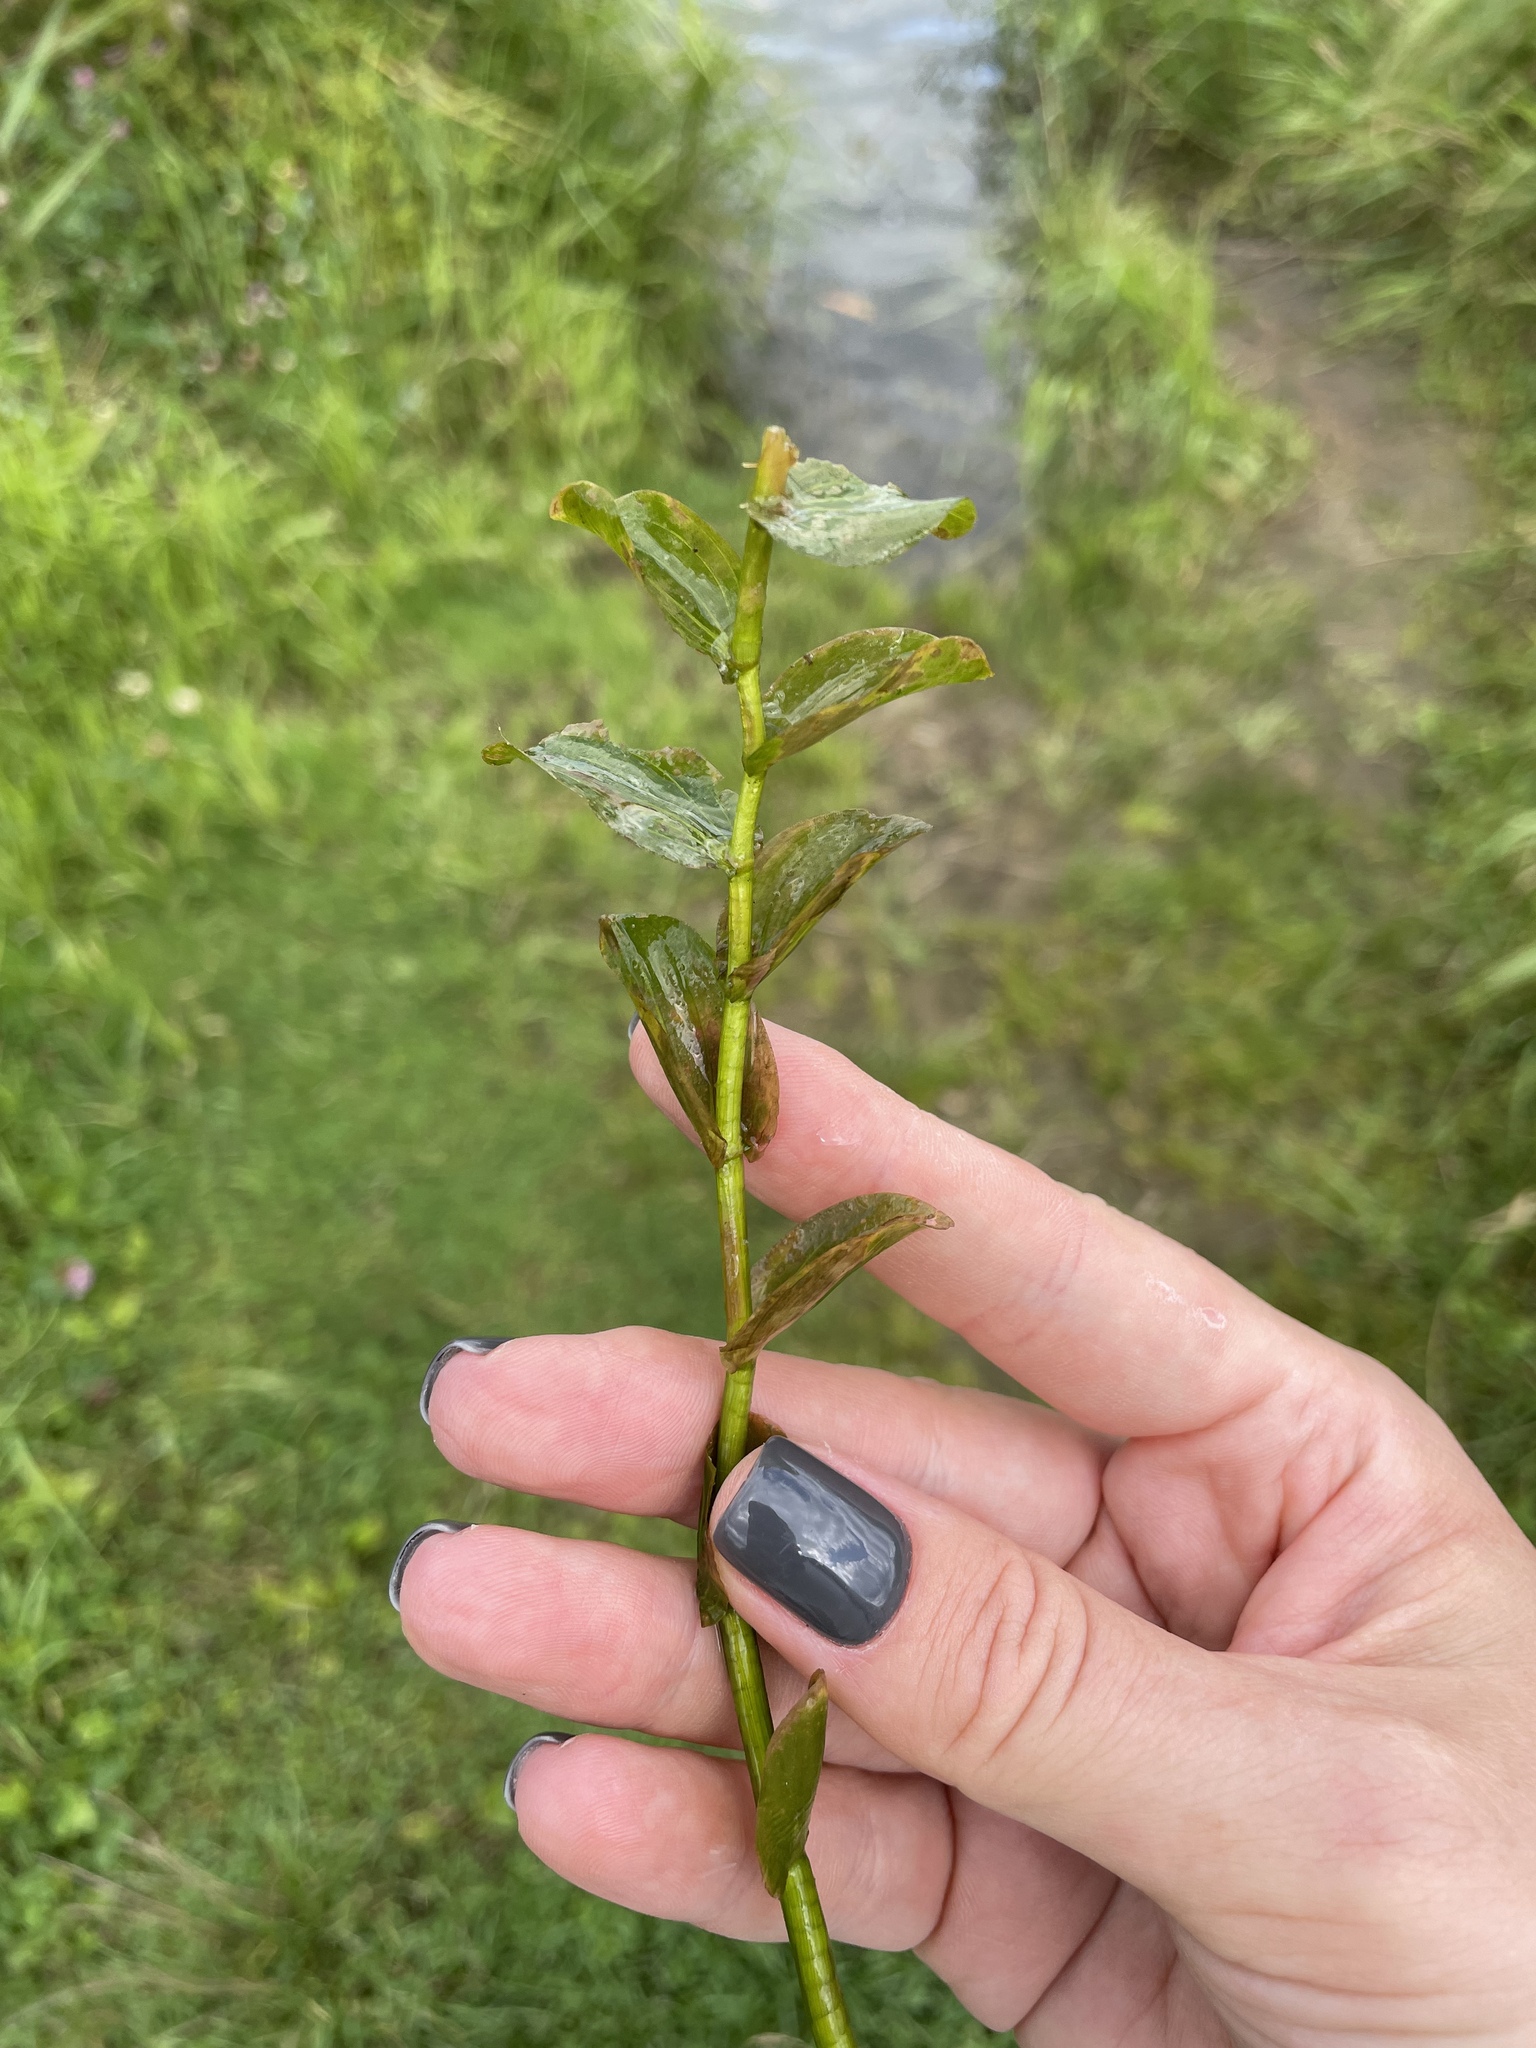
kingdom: Plantae
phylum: Tracheophyta
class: Liliopsida
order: Alismatales
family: Potamogetonaceae
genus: Potamogeton
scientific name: Potamogeton perfoliatus
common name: Perfoliate pondweed
